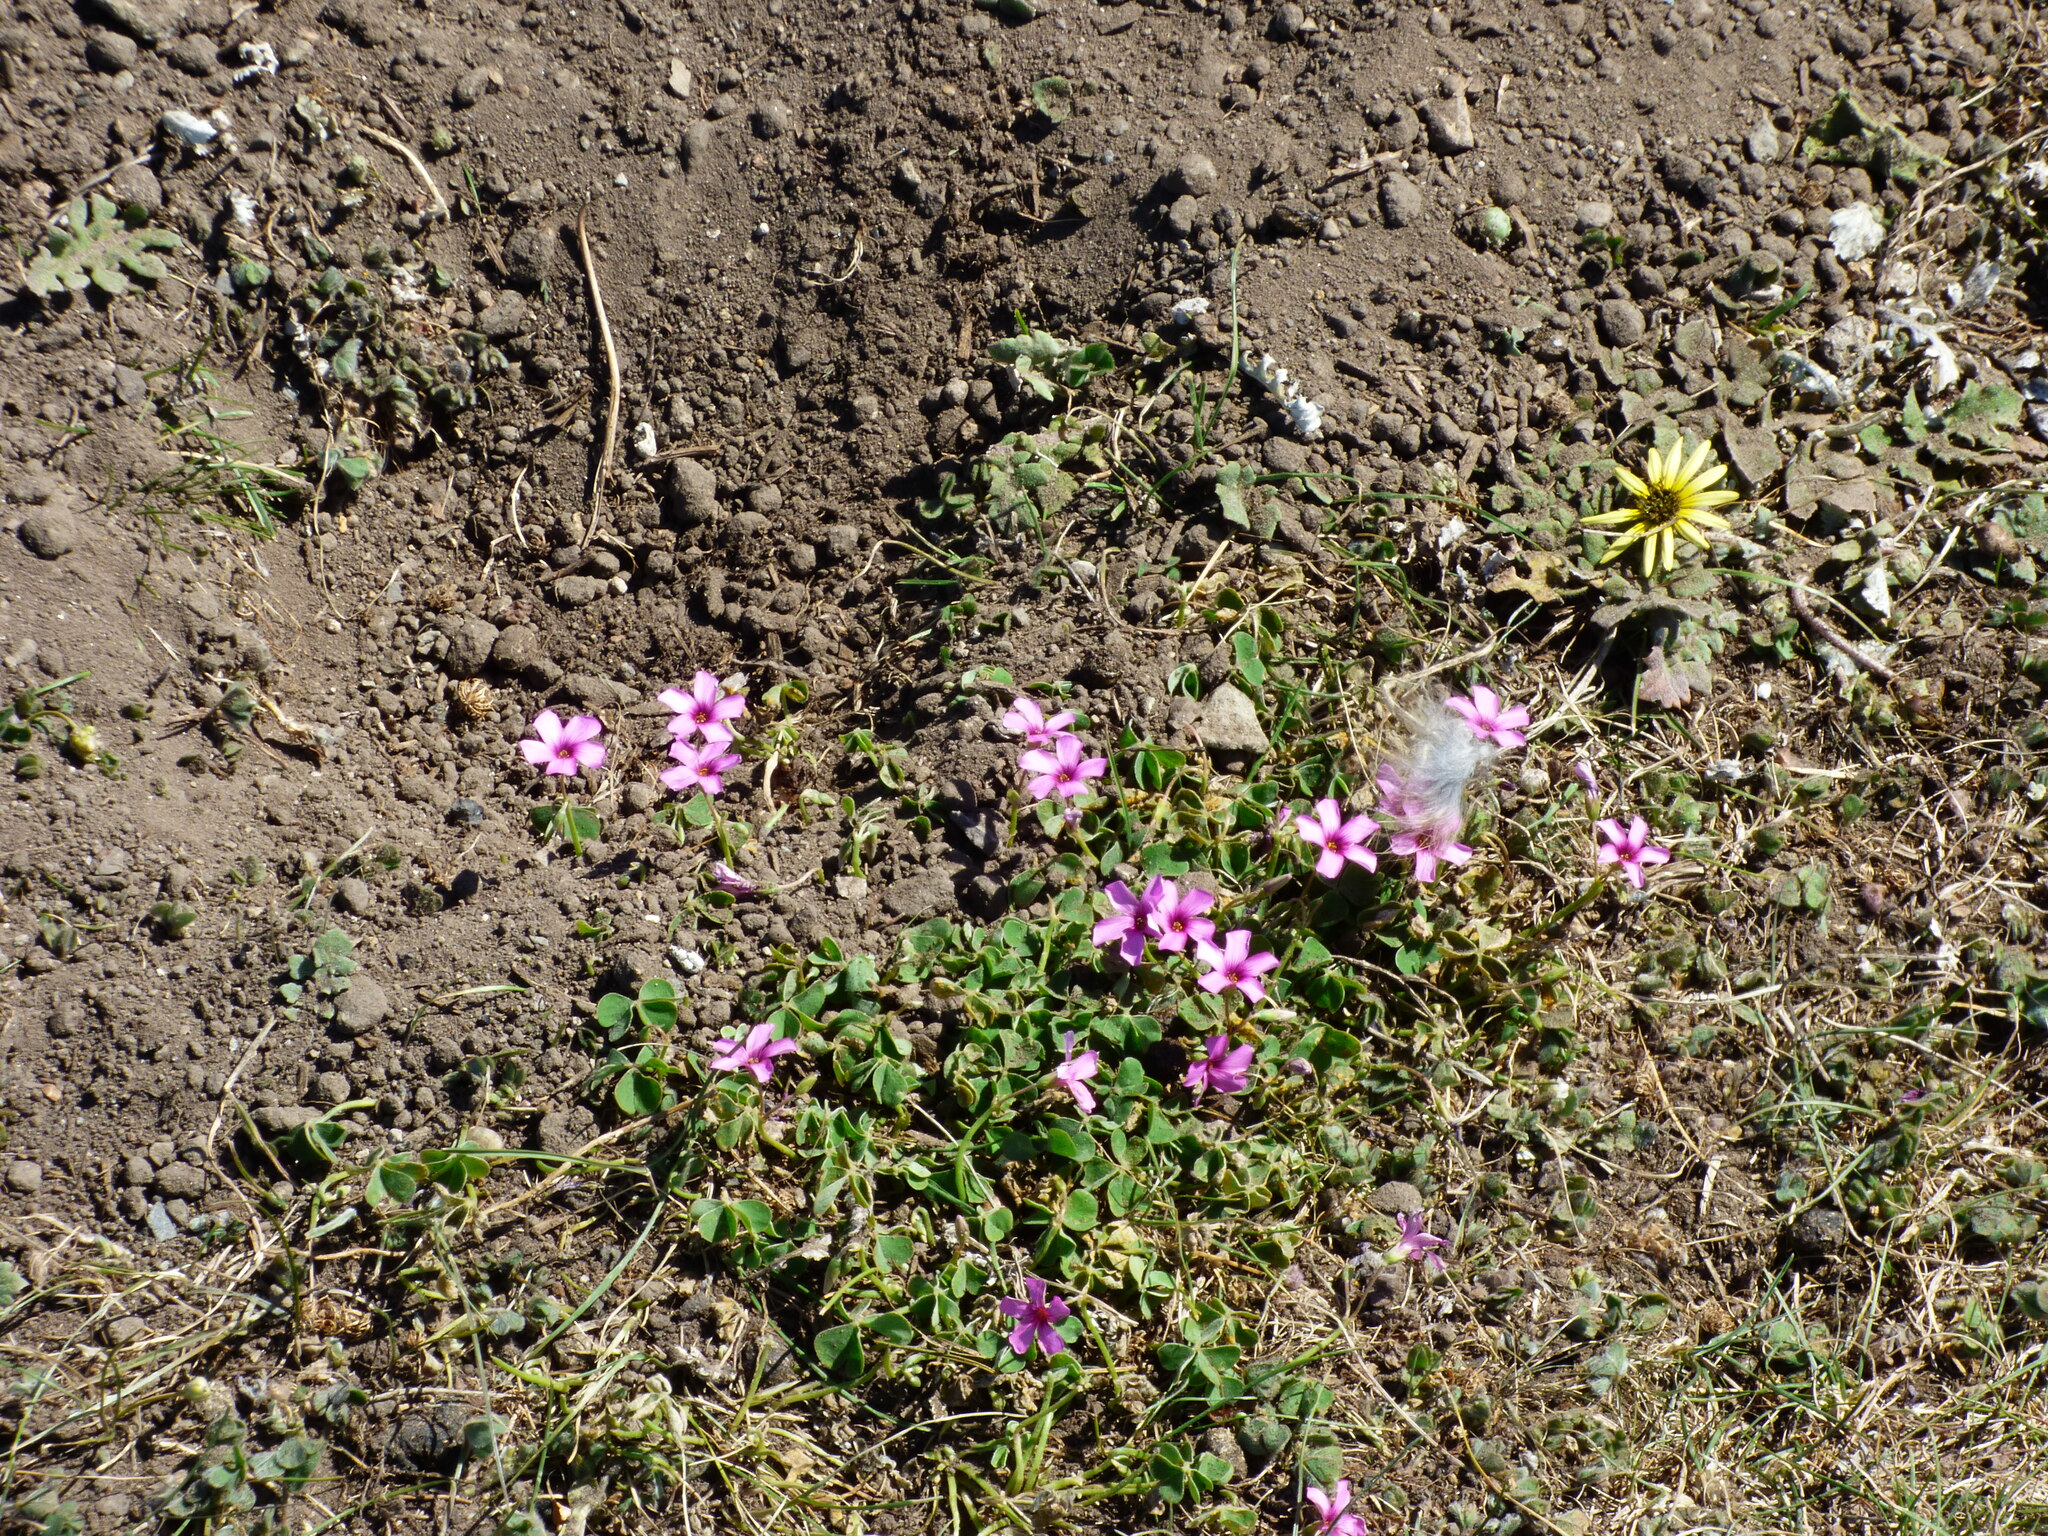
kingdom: Plantae
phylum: Tracheophyta
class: Magnoliopsida
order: Oxalidales
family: Oxalidaceae
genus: Oxalis
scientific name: Oxalis articulata
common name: Pink-sorrel
